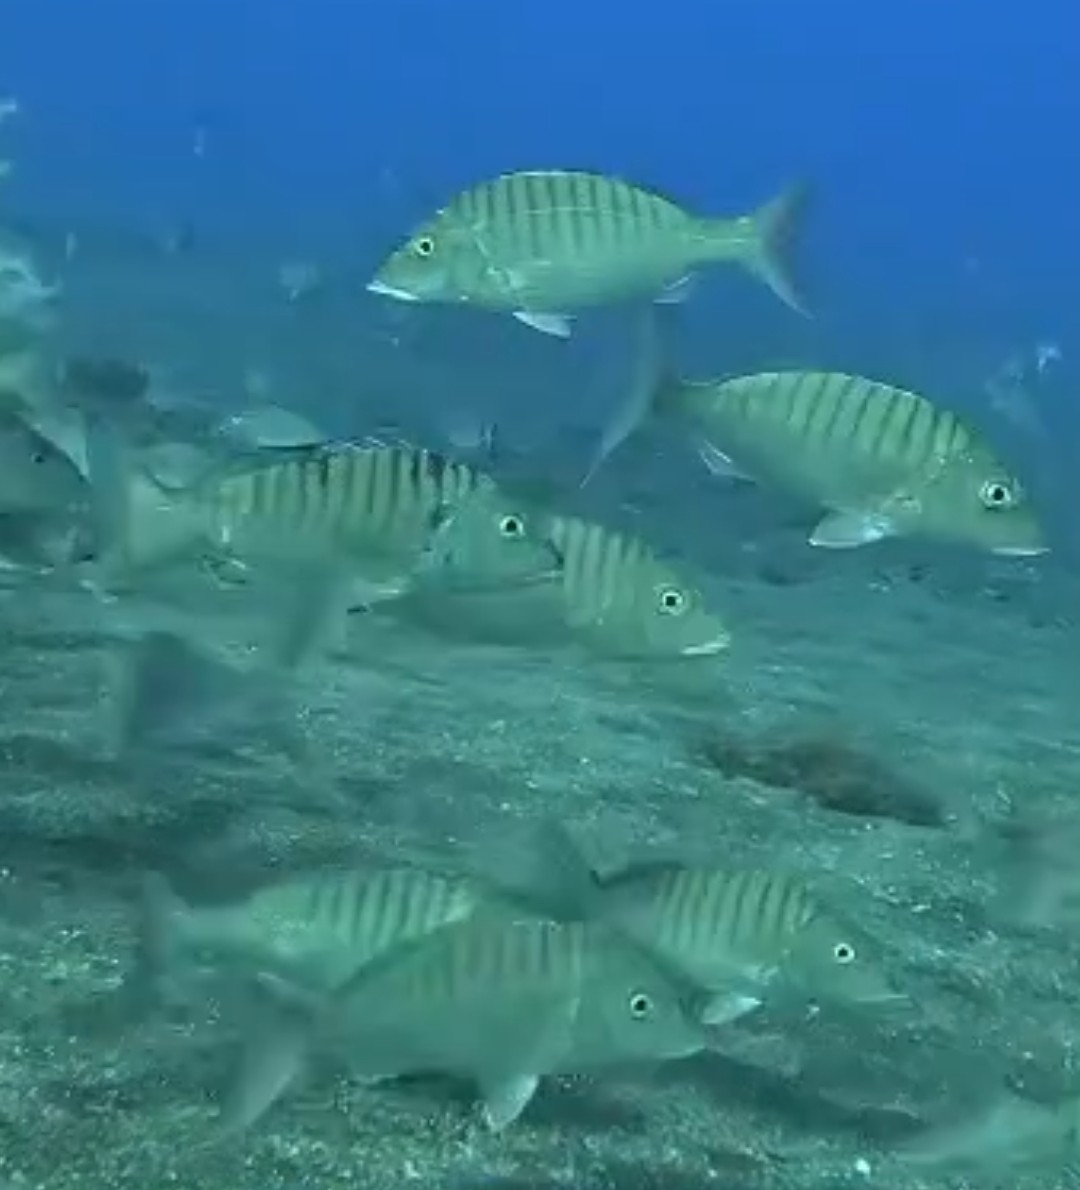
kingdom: Animalia
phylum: Chordata
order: Perciformes
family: Sparidae
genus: Lithognathus
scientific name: Lithognathus mormyrus
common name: Sand steenbras
